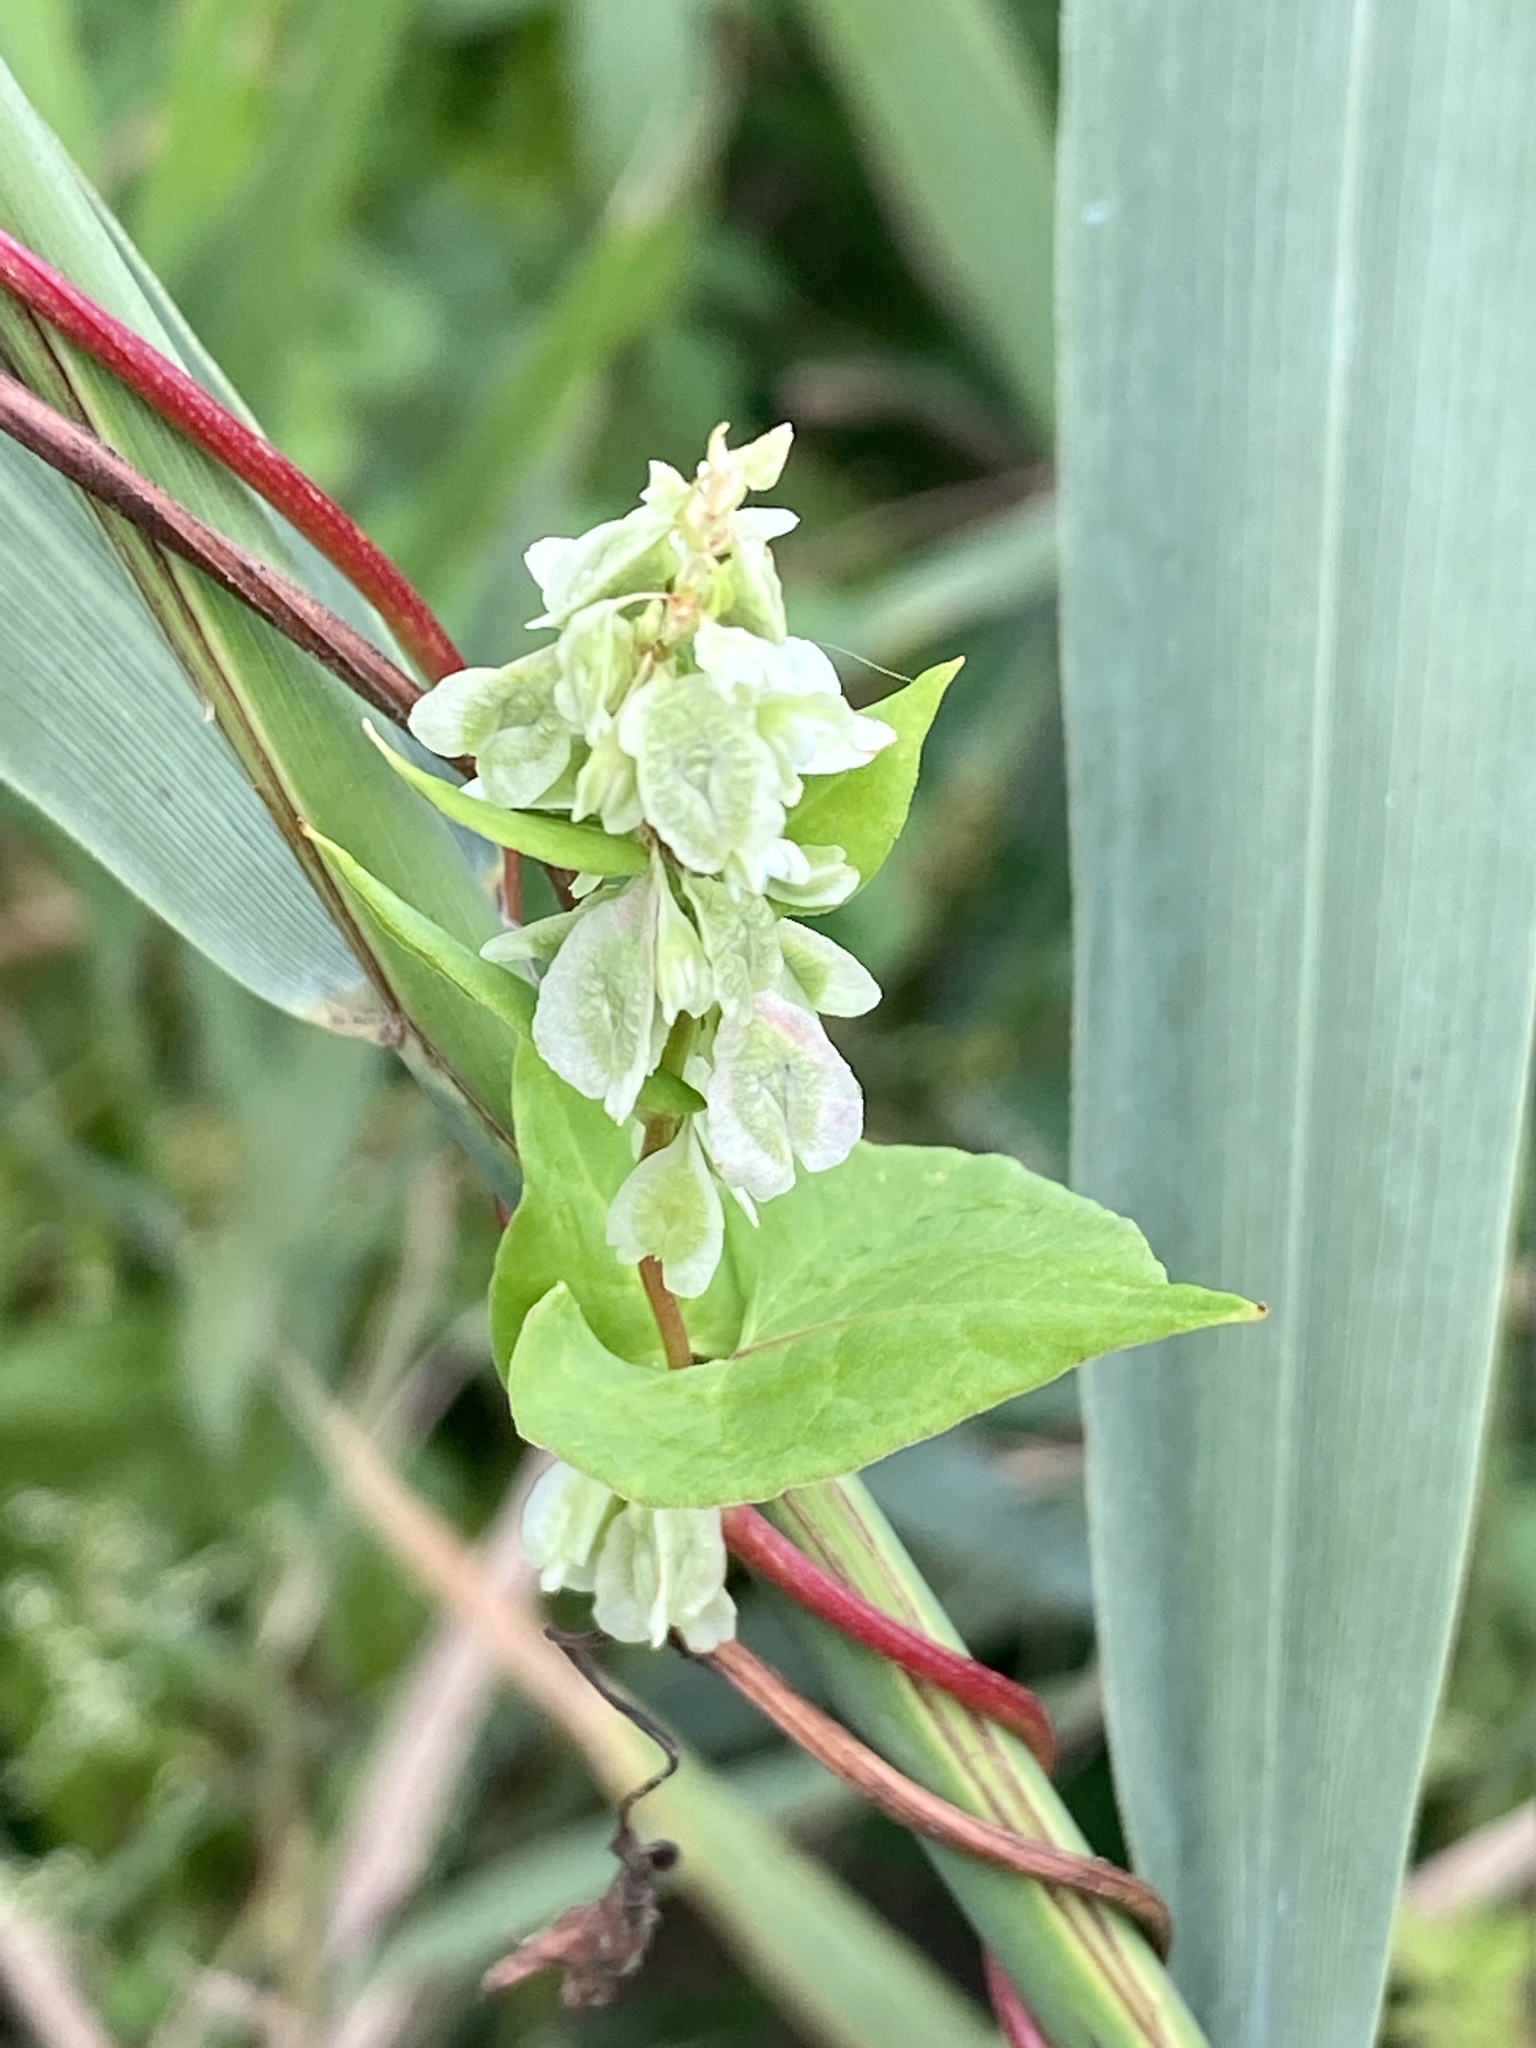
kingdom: Plantae
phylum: Tracheophyta
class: Magnoliopsida
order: Caryophyllales
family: Polygonaceae
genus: Fallopia
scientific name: Fallopia scandens
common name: Climbing false buckwheat
